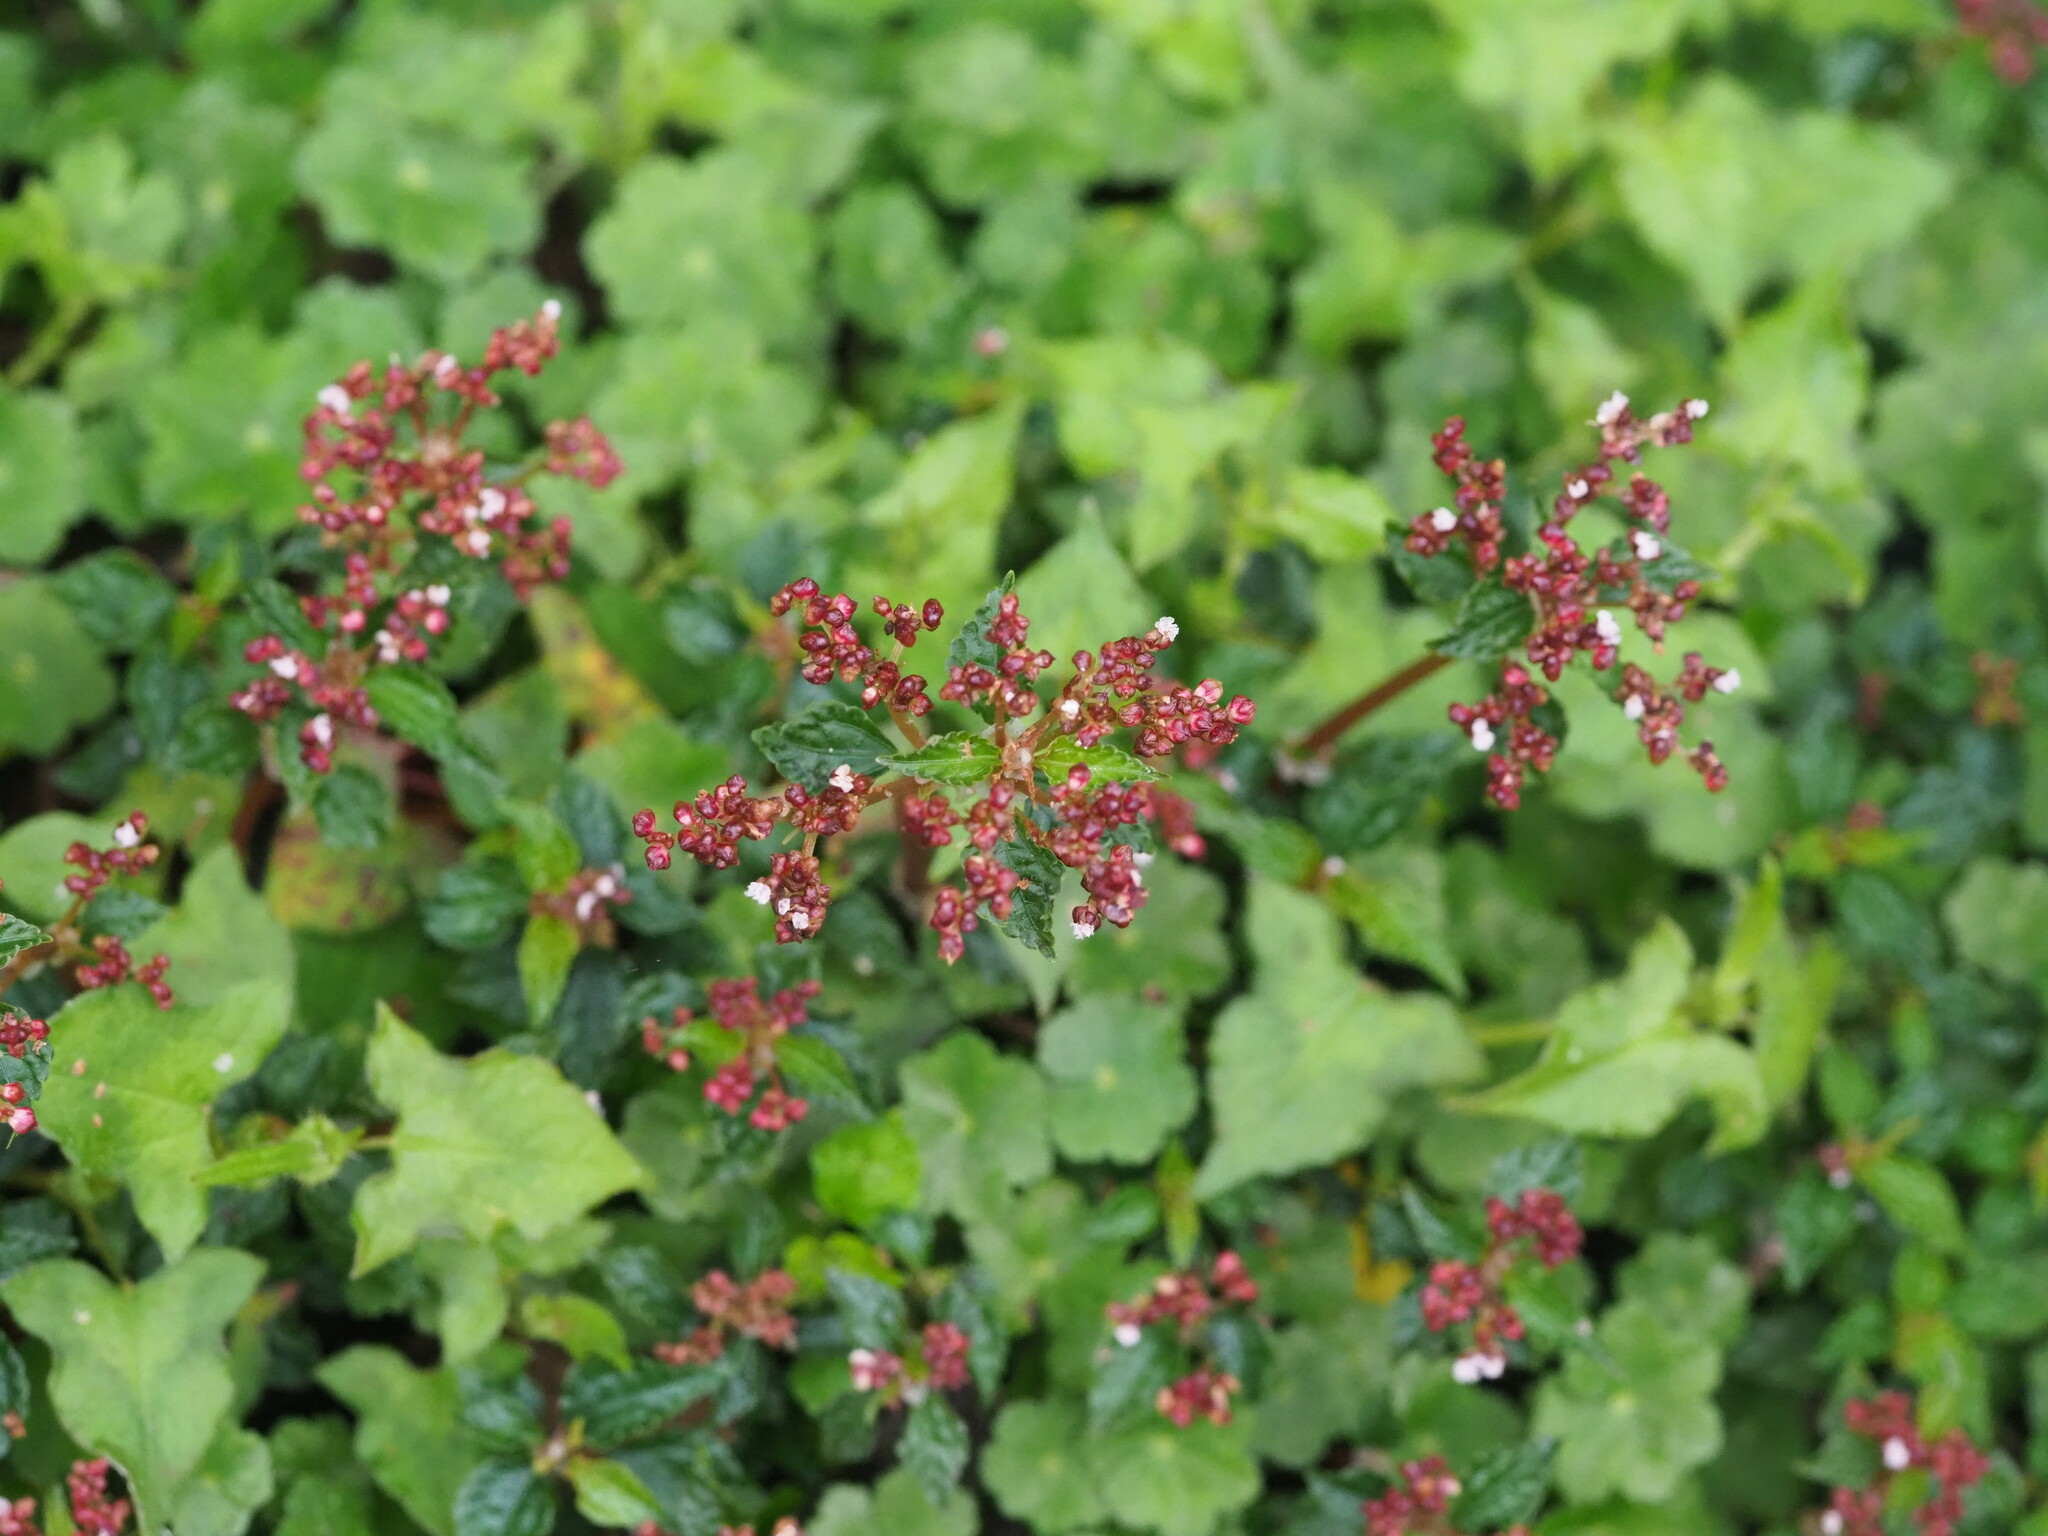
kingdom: Plantae
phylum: Tracheophyta
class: Magnoliopsida
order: Rosales
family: Urticaceae
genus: Pilea
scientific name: Pilea brevicornuta
